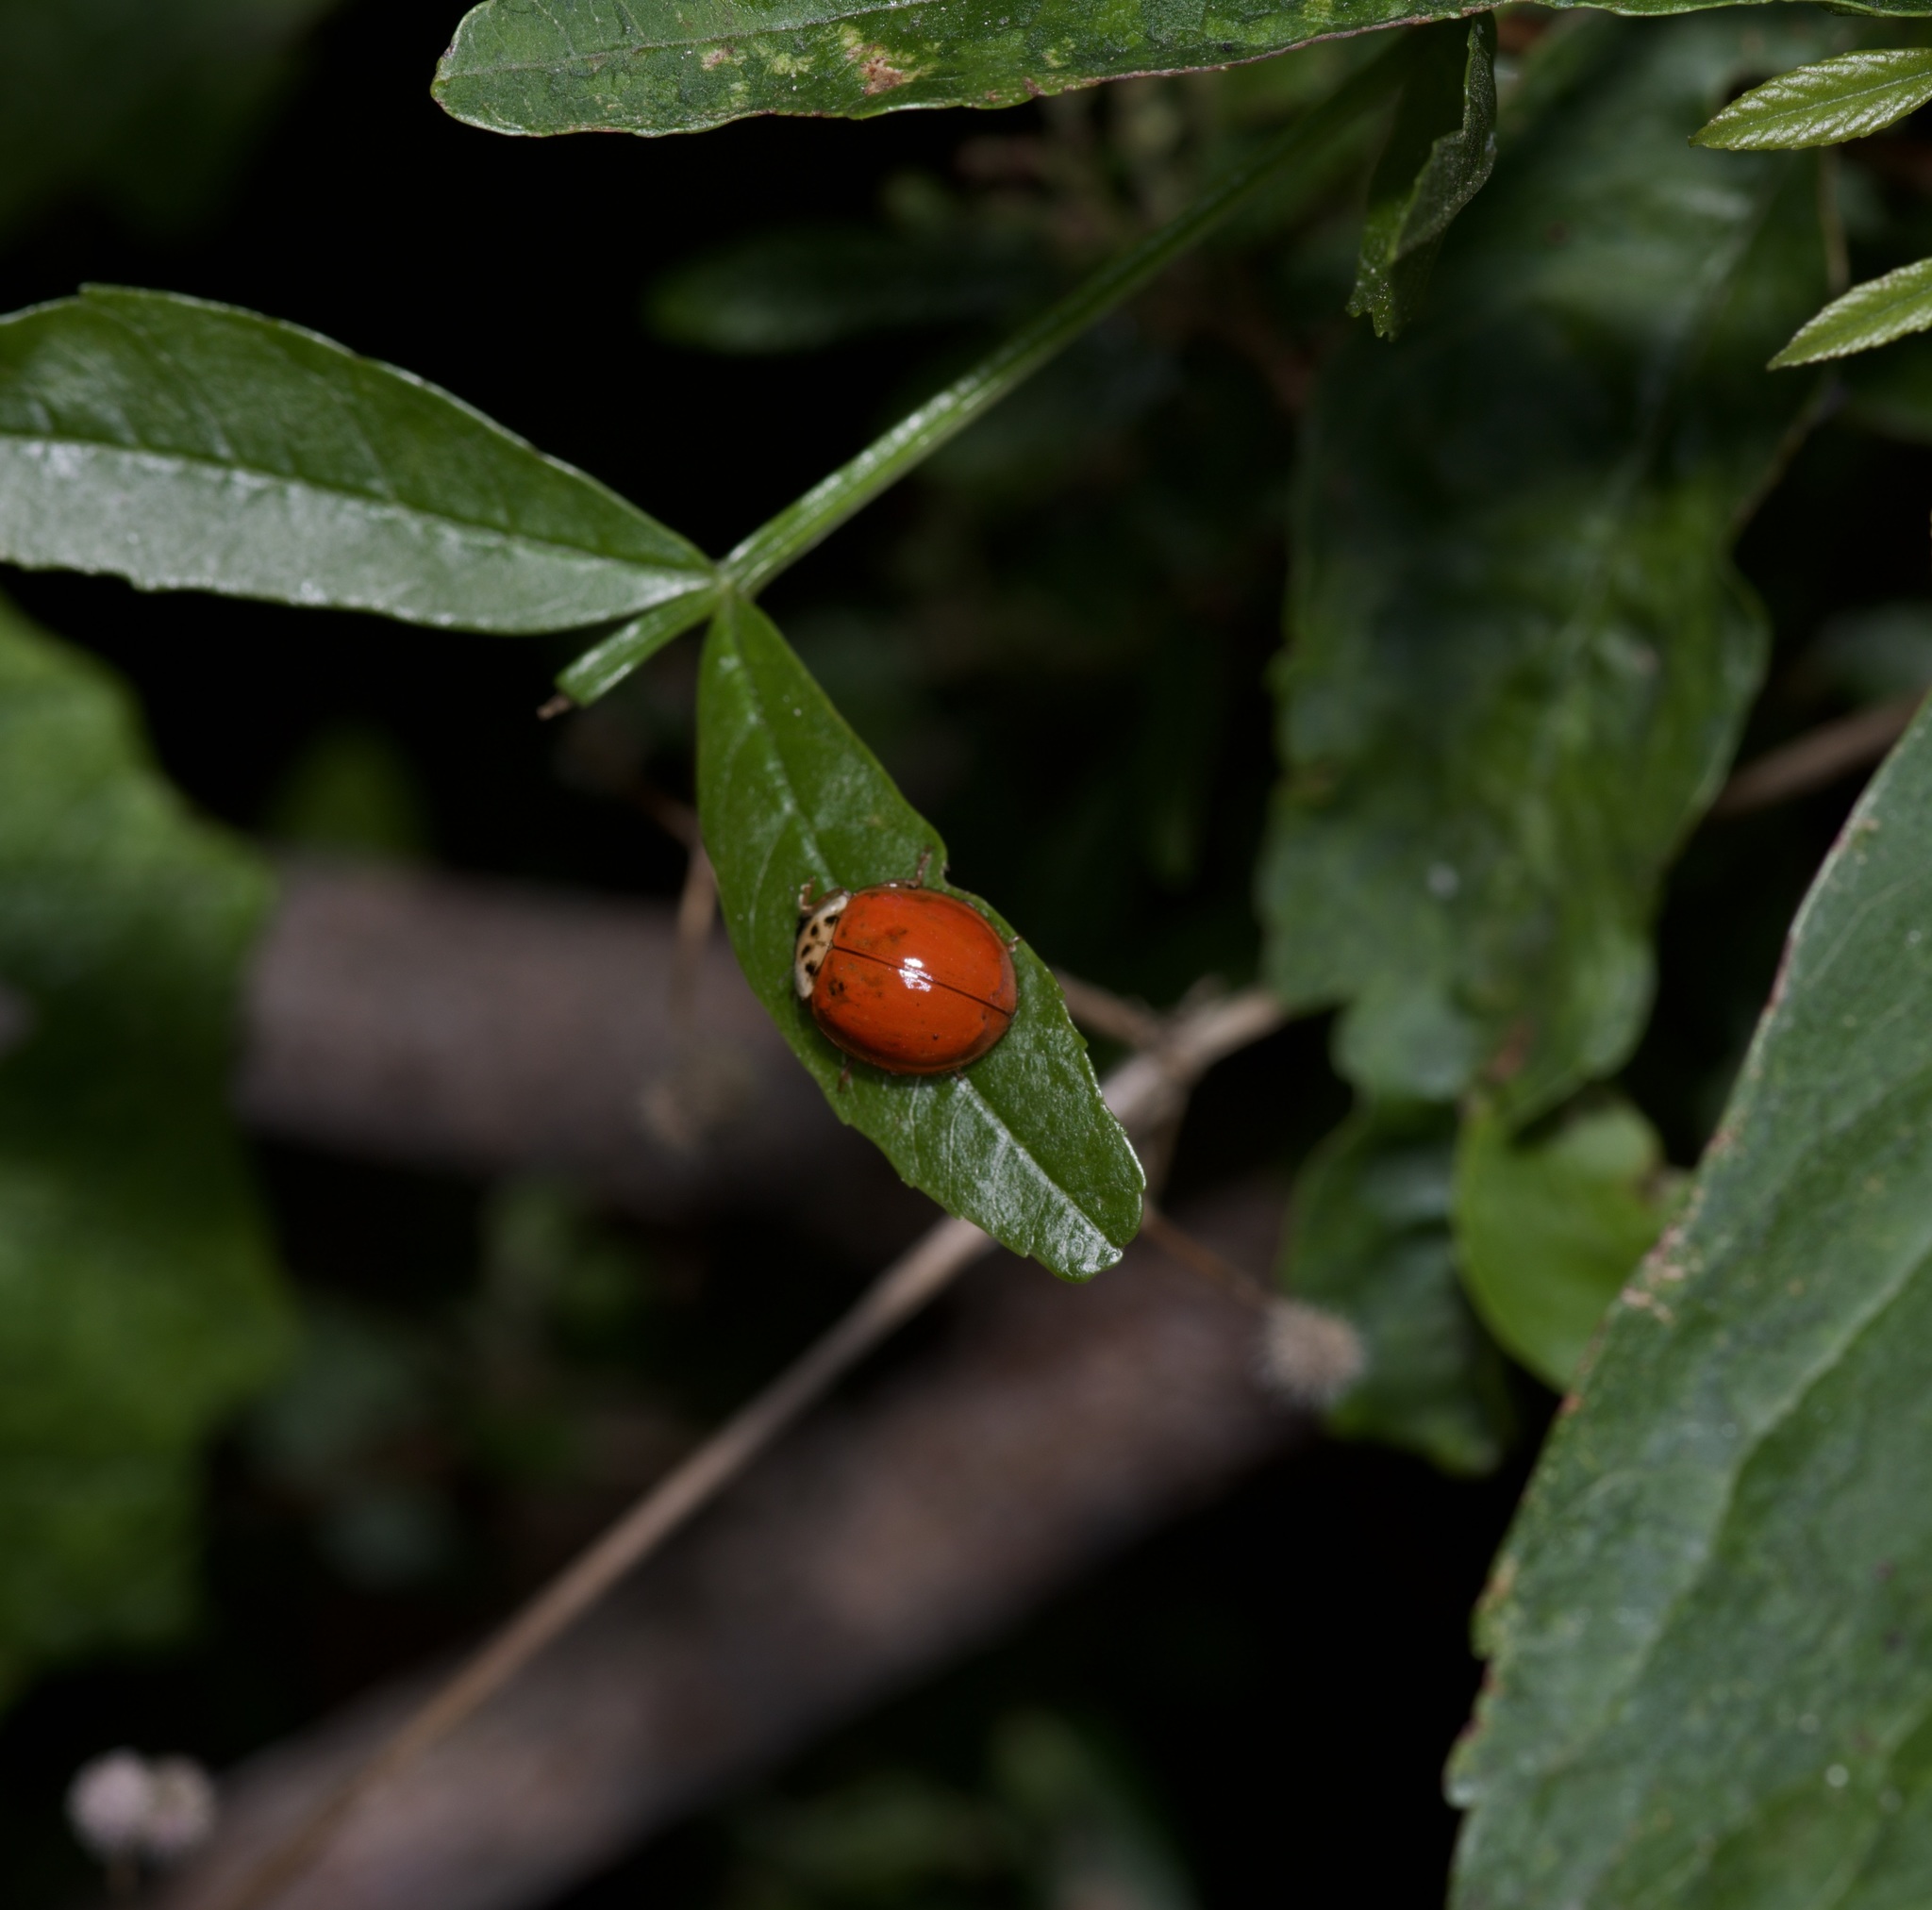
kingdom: Animalia
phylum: Arthropoda
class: Insecta
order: Coleoptera
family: Coccinellidae
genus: Harmonia
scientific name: Harmonia axyridis
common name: Harlequin ladybird
